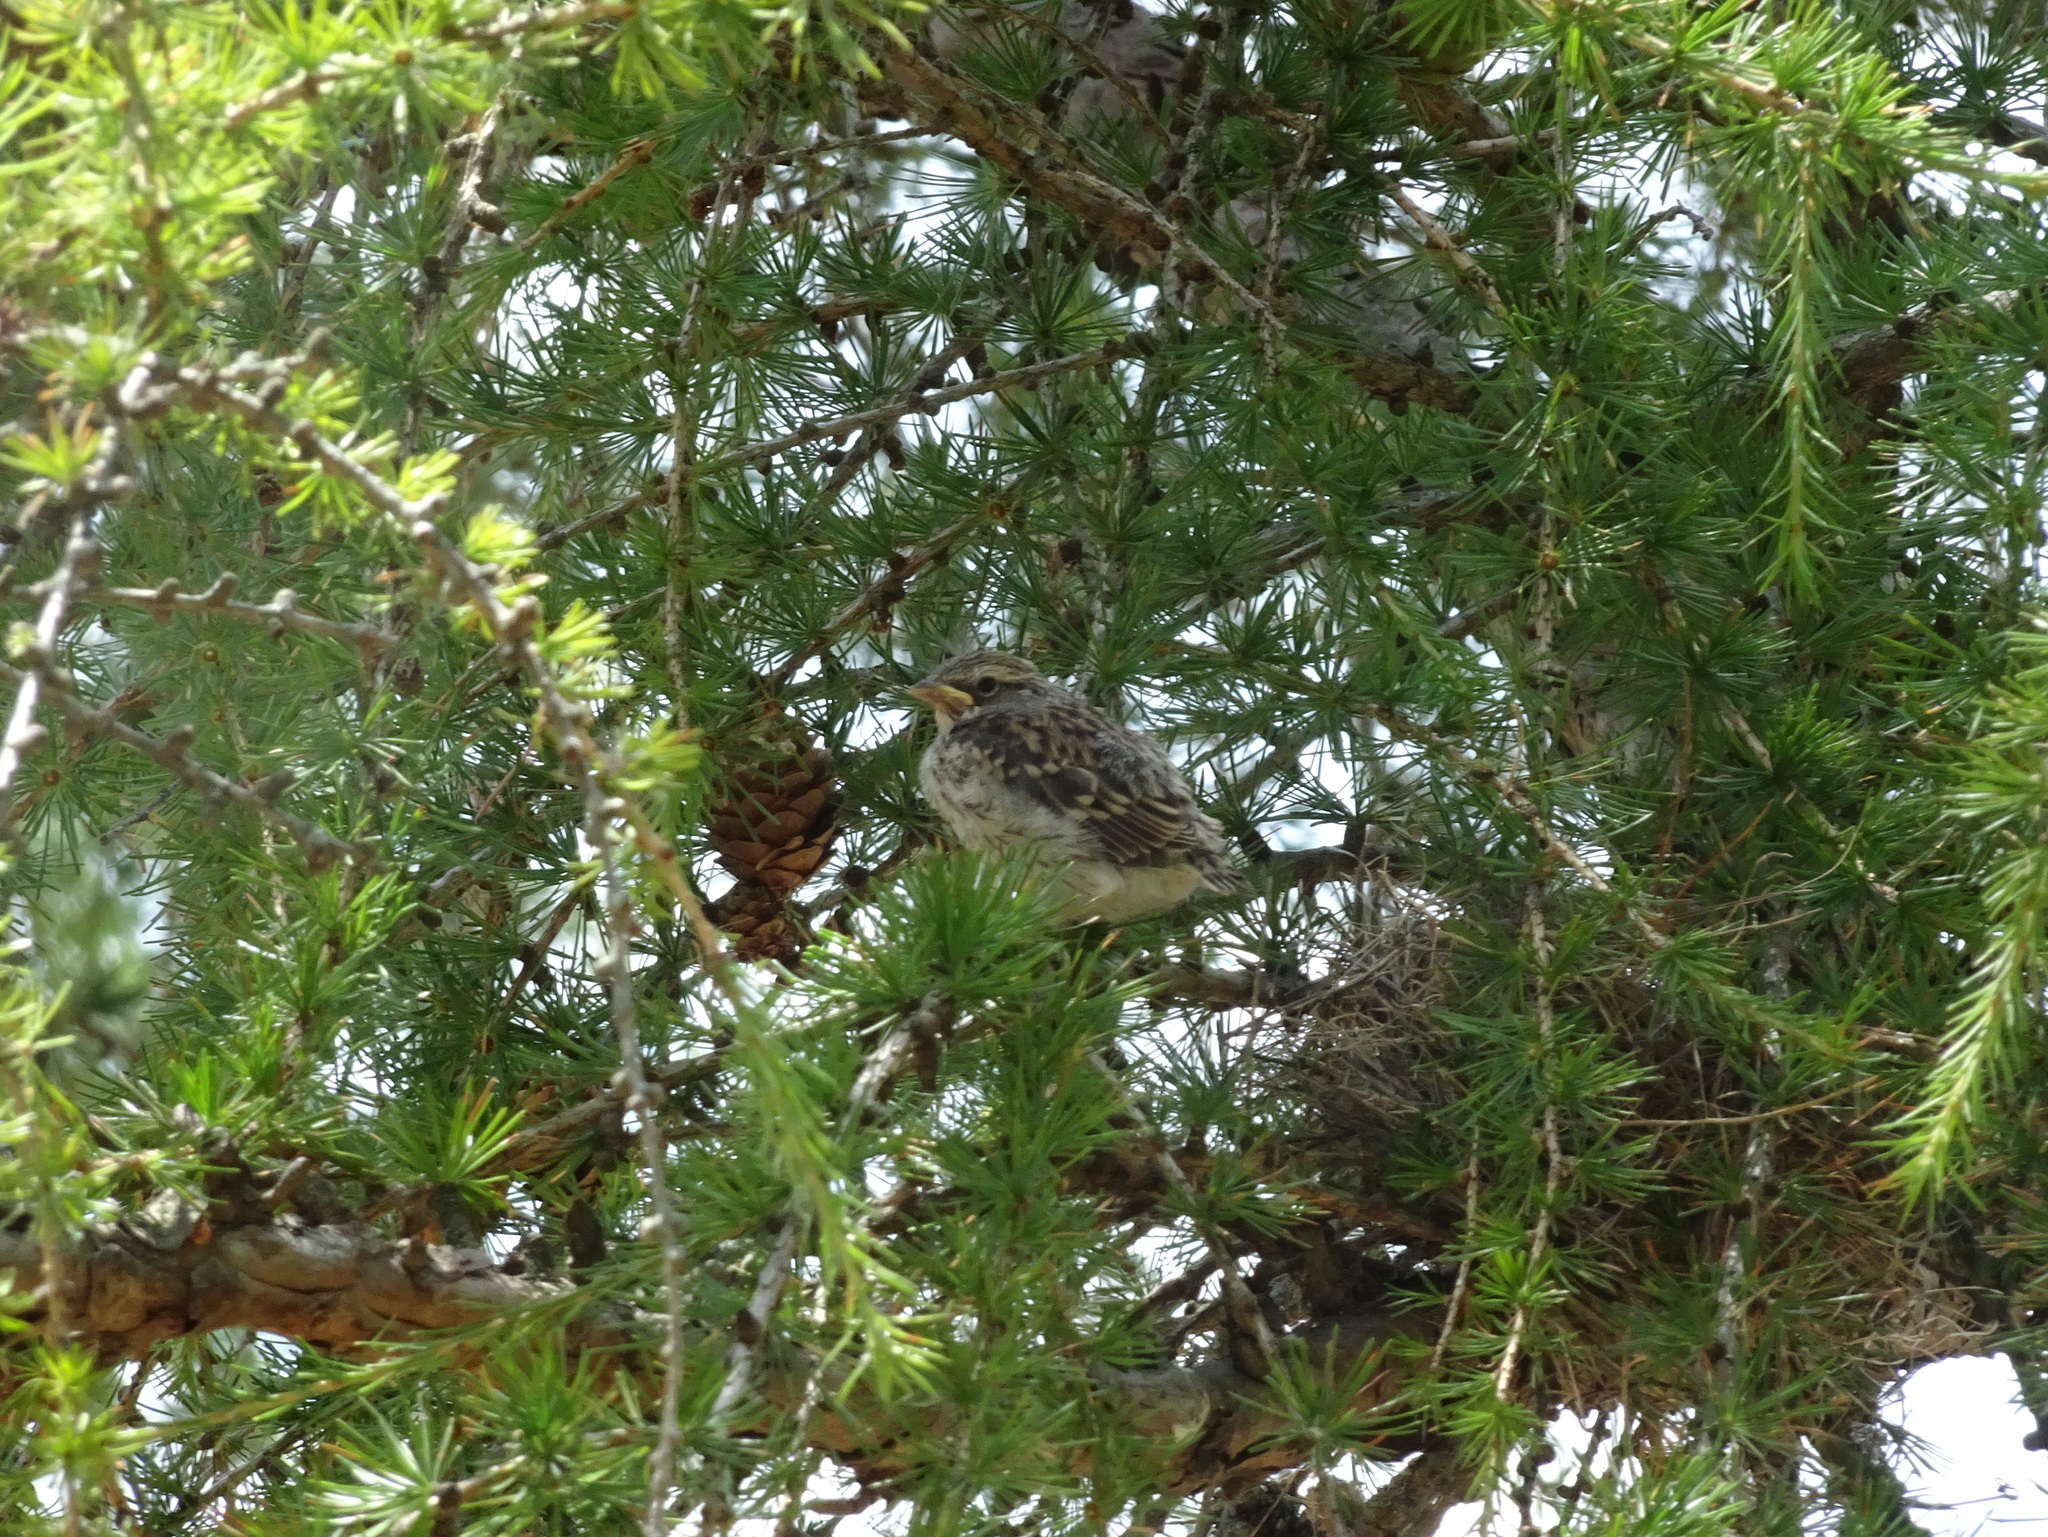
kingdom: Animalia
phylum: Chordata
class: Aves
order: Passeriformes
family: Passerellidae
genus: Spizella
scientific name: Spizella passerina
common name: Chipping sparrow
